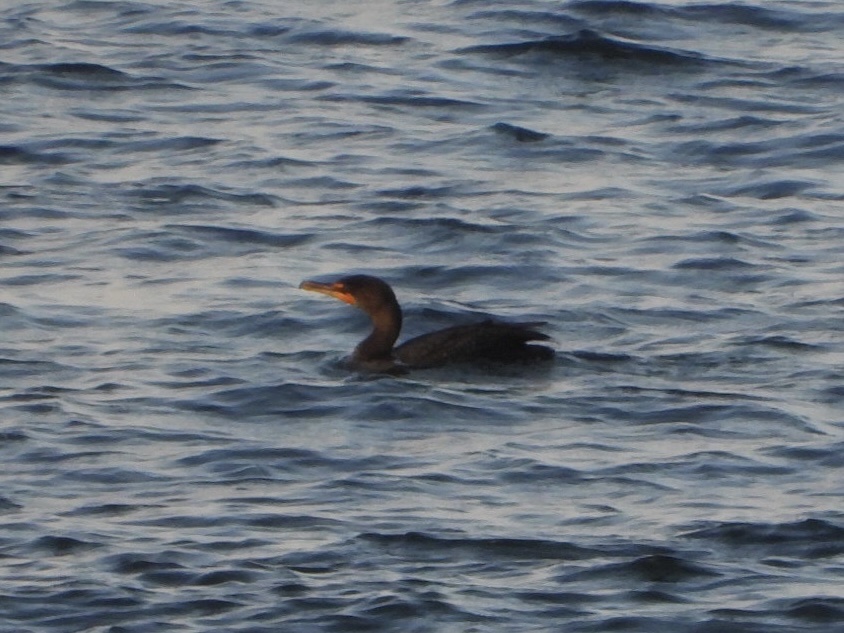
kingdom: Animalia
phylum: Chordata
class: Aves
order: Suliformes
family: Phalacrocoracidae
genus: Phalacrocorax
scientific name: Phalacrocorax auritus
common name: Double-crested cormorant
